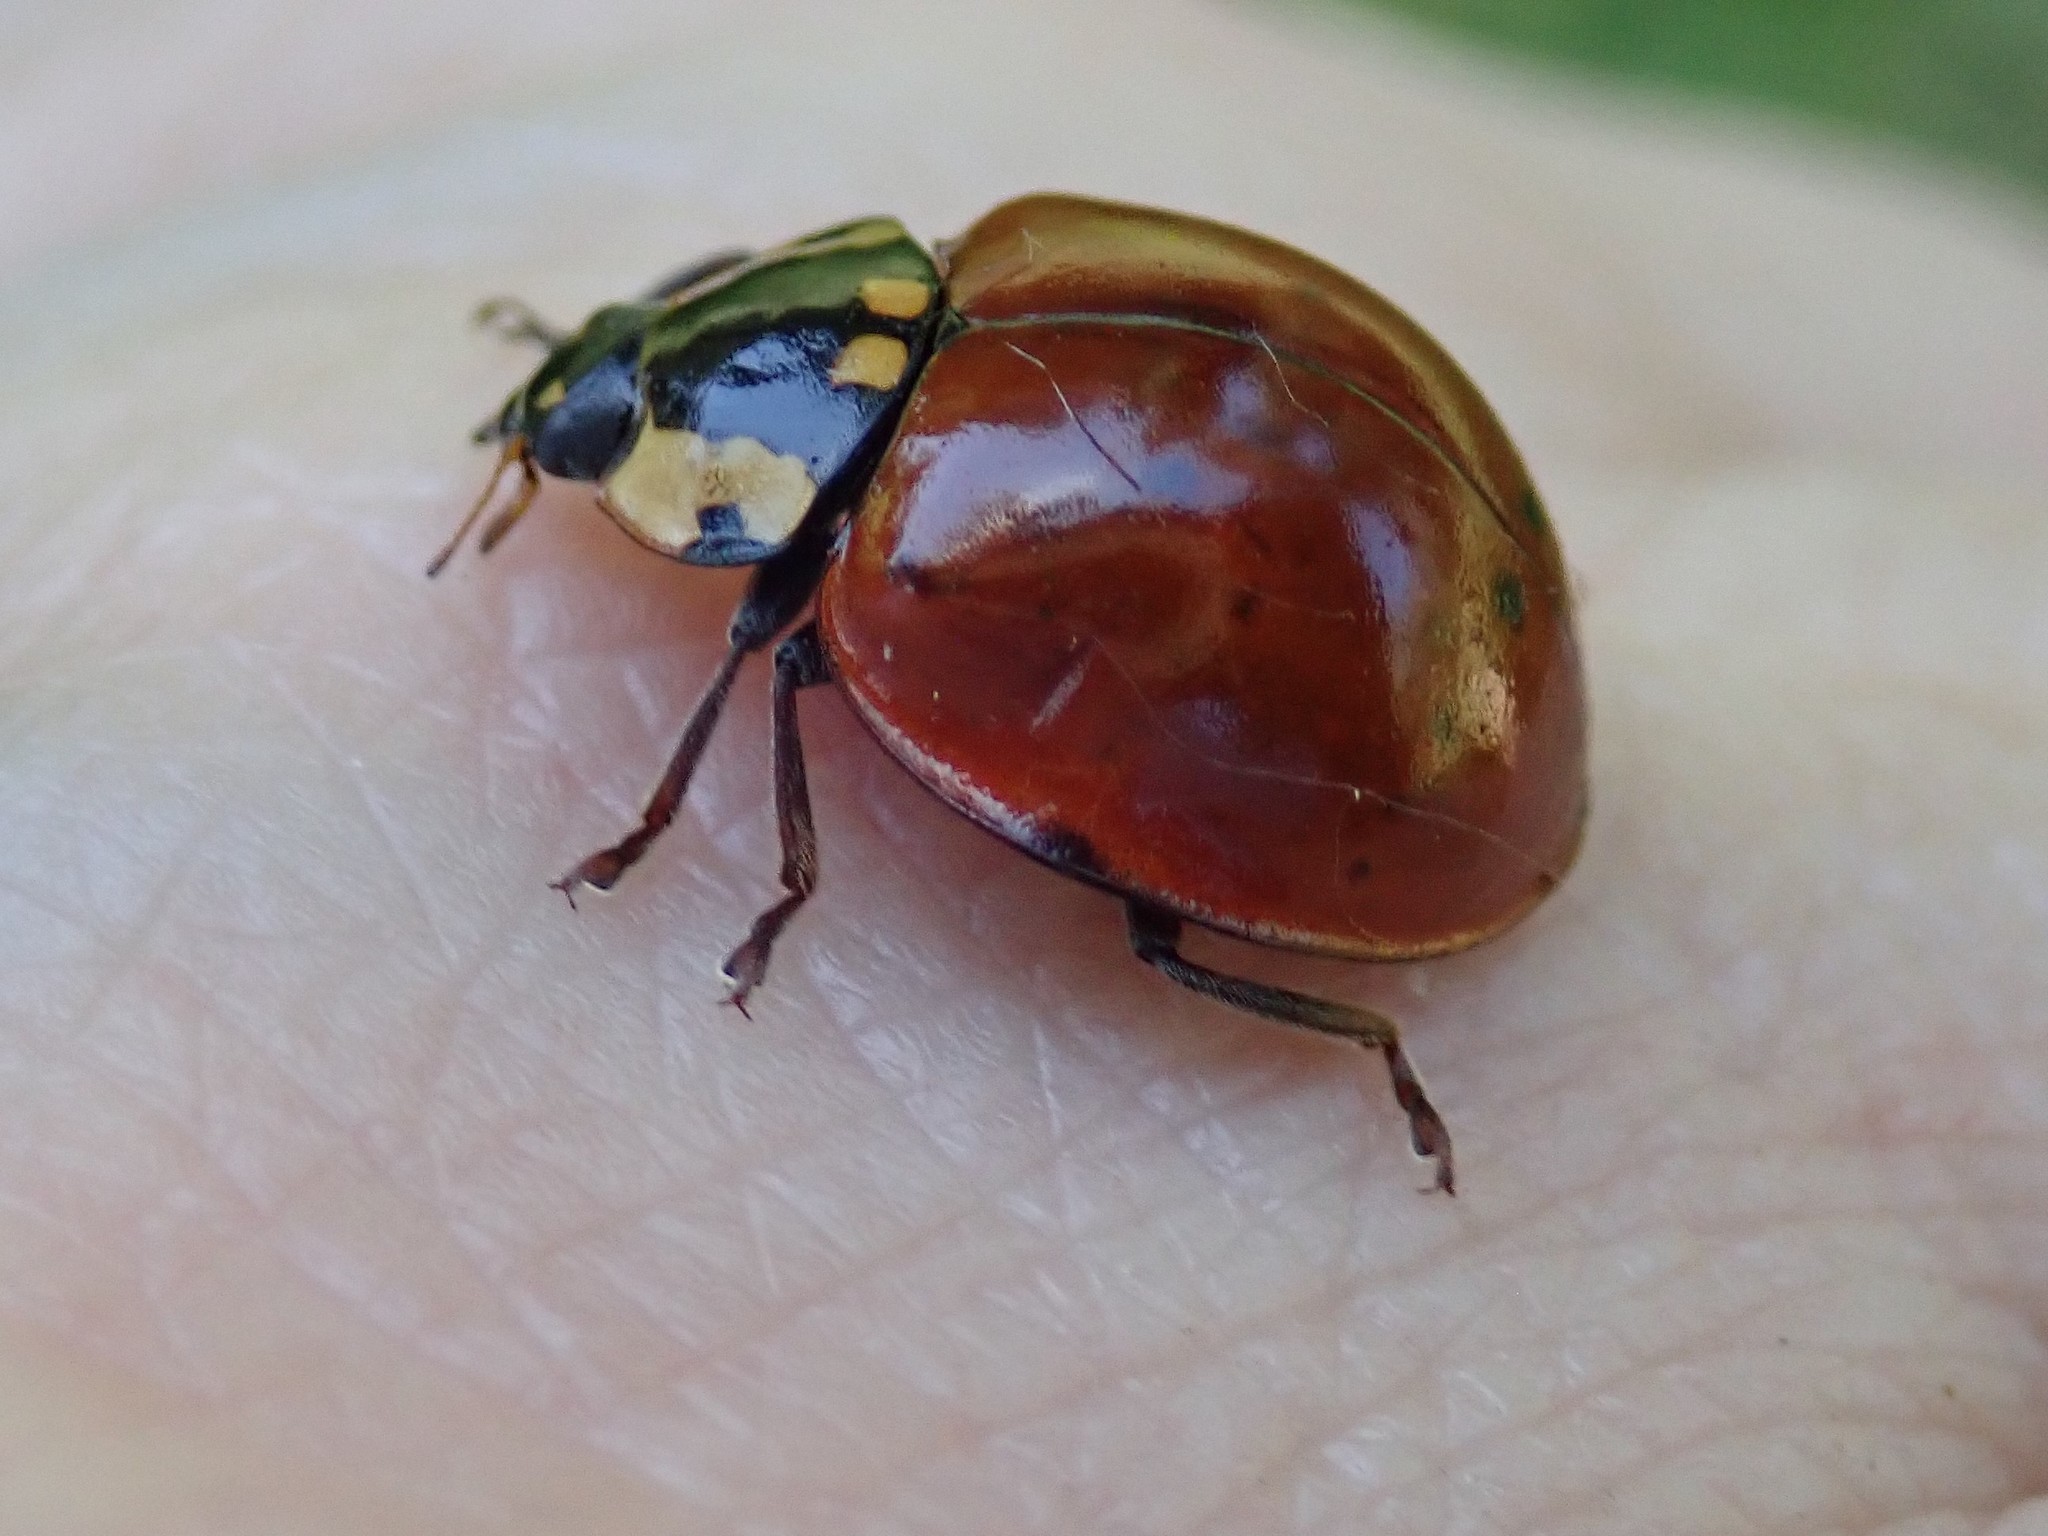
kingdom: Animalia
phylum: Arthropoda
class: Insecta
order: Coleoptera
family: Coccinellidae
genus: Anatis
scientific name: Anatis rathvoni
